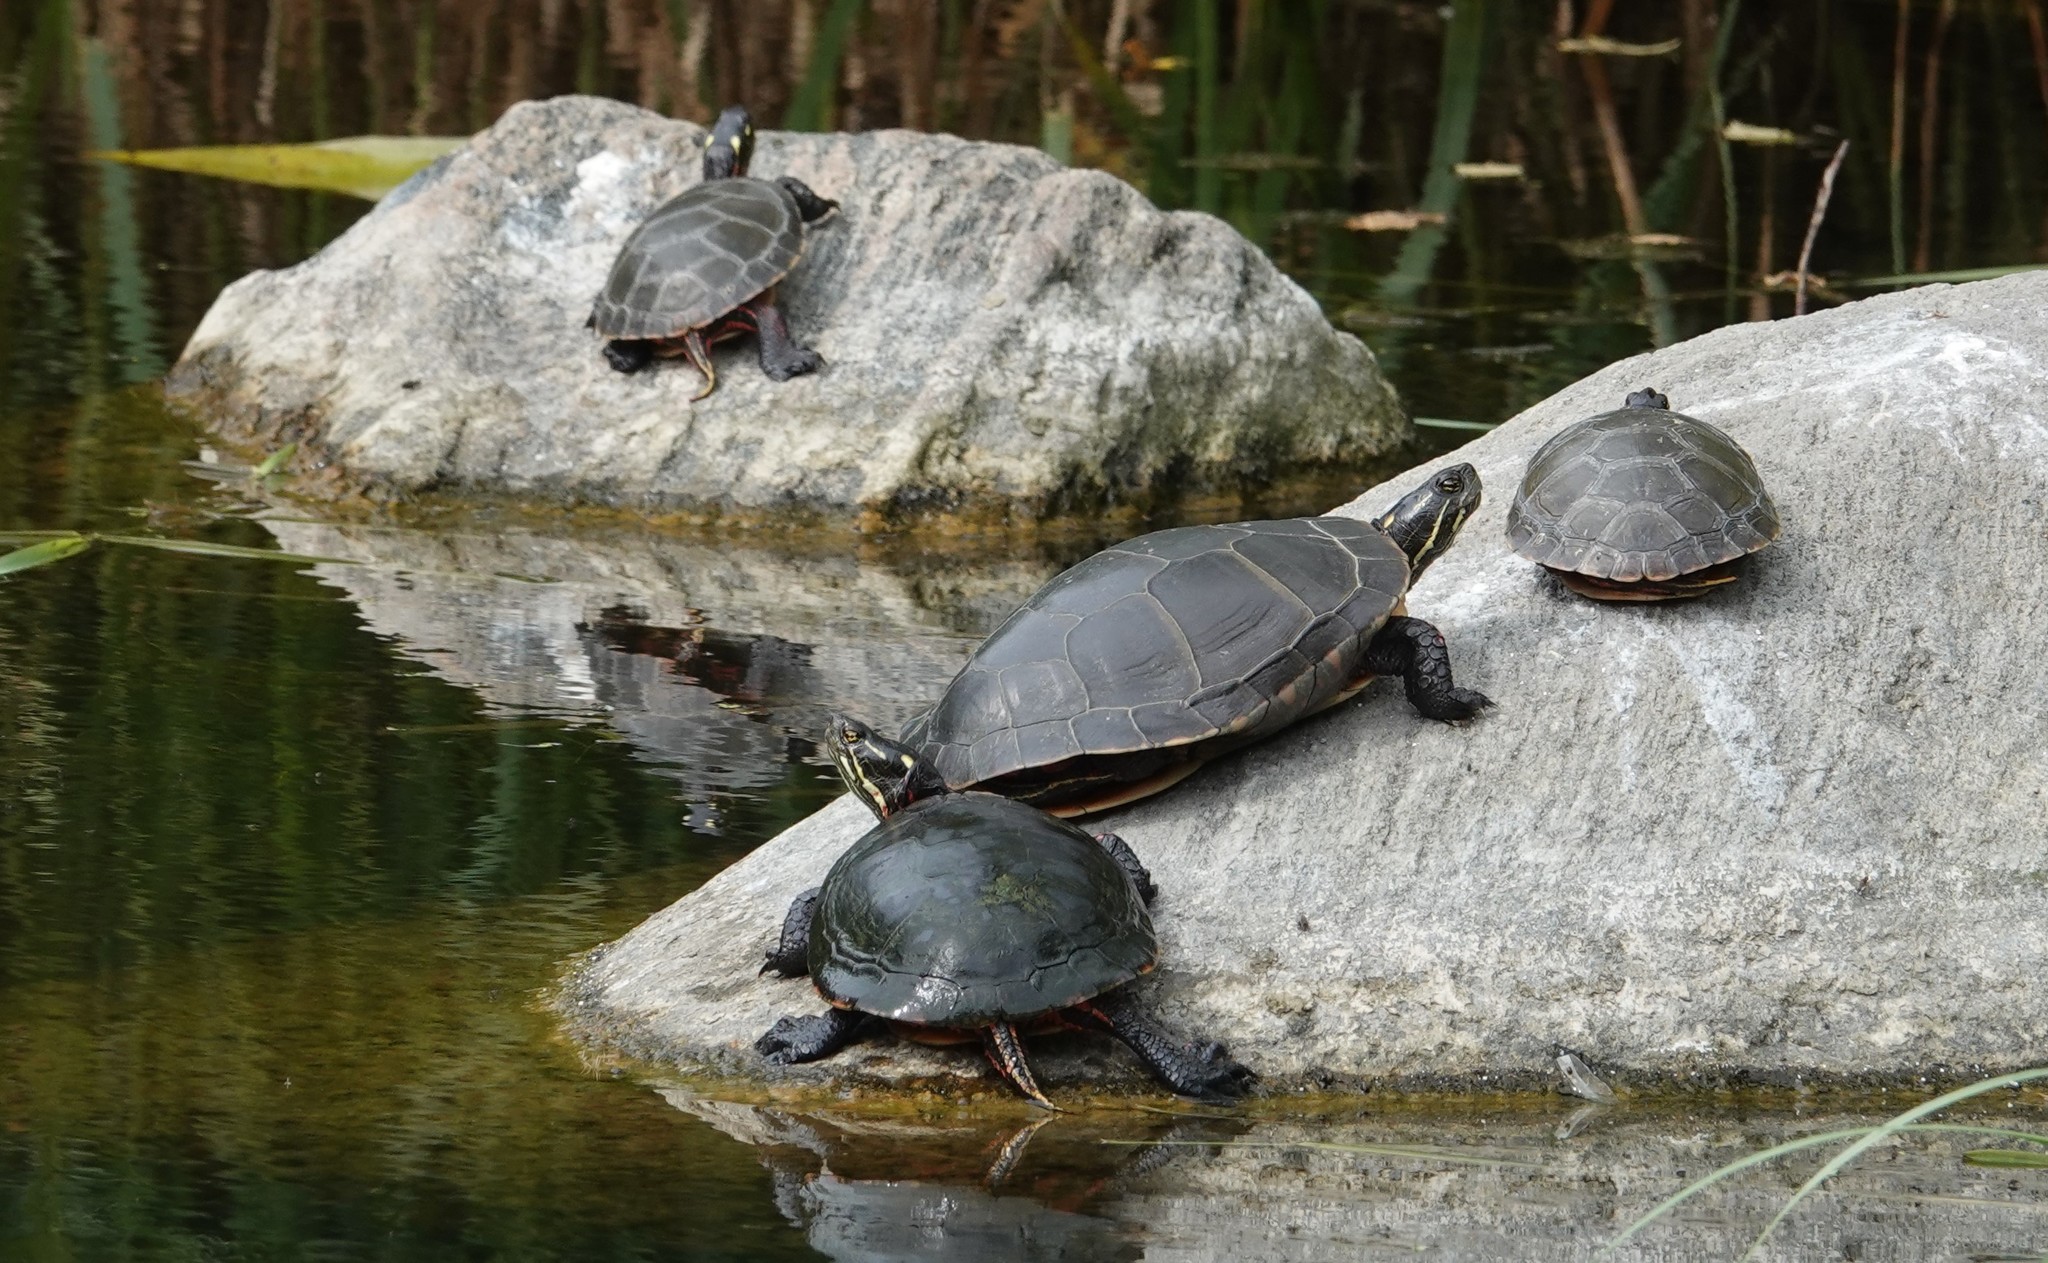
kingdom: Animalia
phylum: Chordata
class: Testudines
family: Emydidae
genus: Chrysemys
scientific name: Chrysemys picta
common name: Painted turtle
